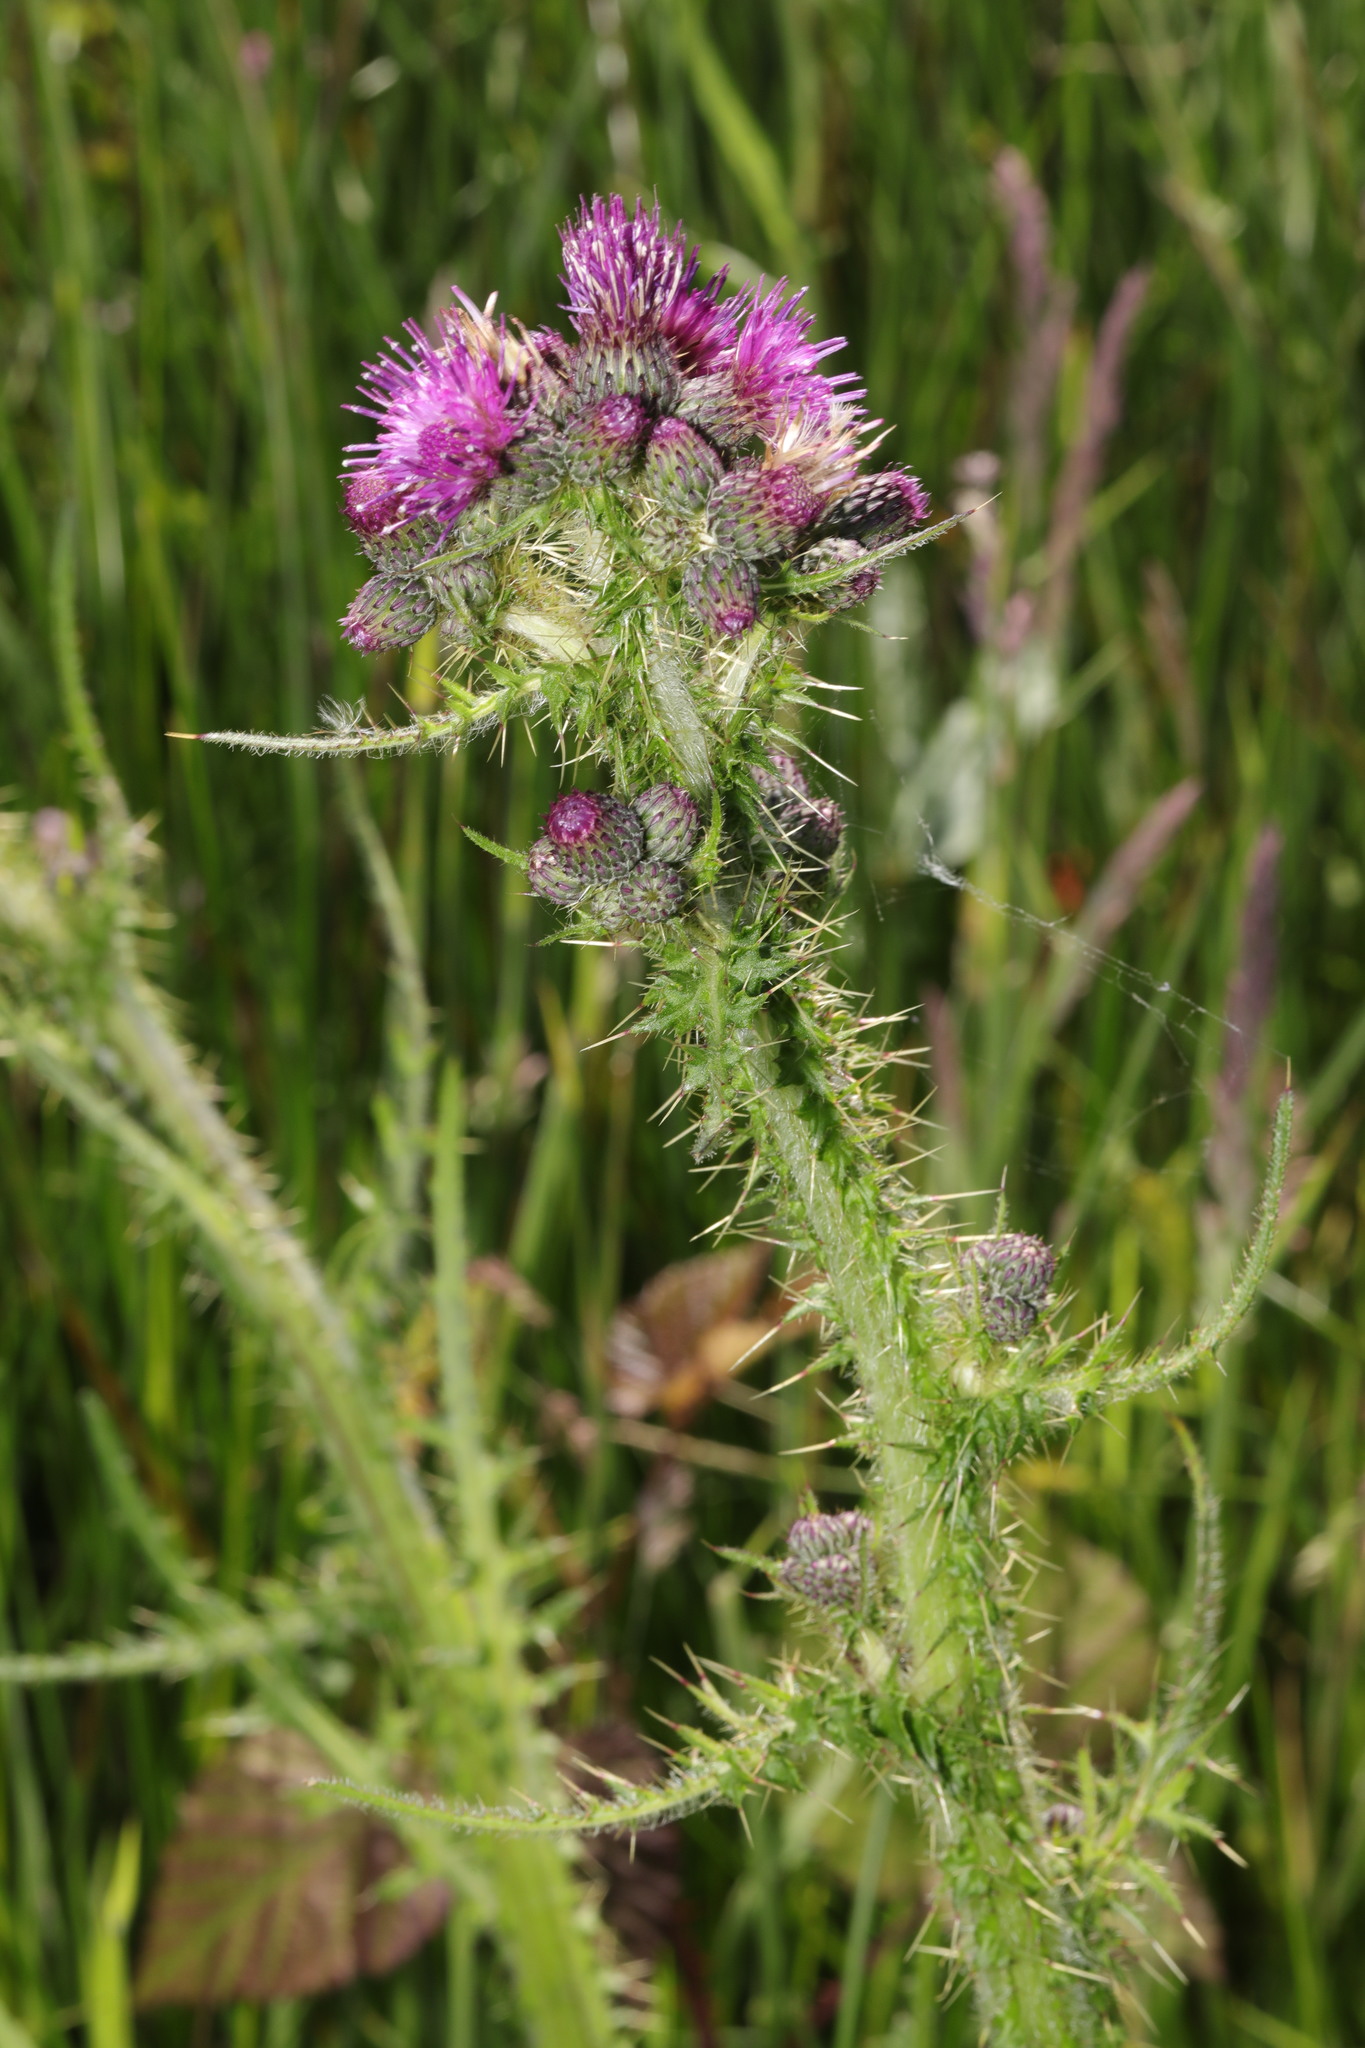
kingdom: Plantae
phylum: Tracheophyta
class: Magnoliopsida
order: Asterales
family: Asteraceae
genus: Cirsium
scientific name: Cirsium palustre
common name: Marsh thistle
